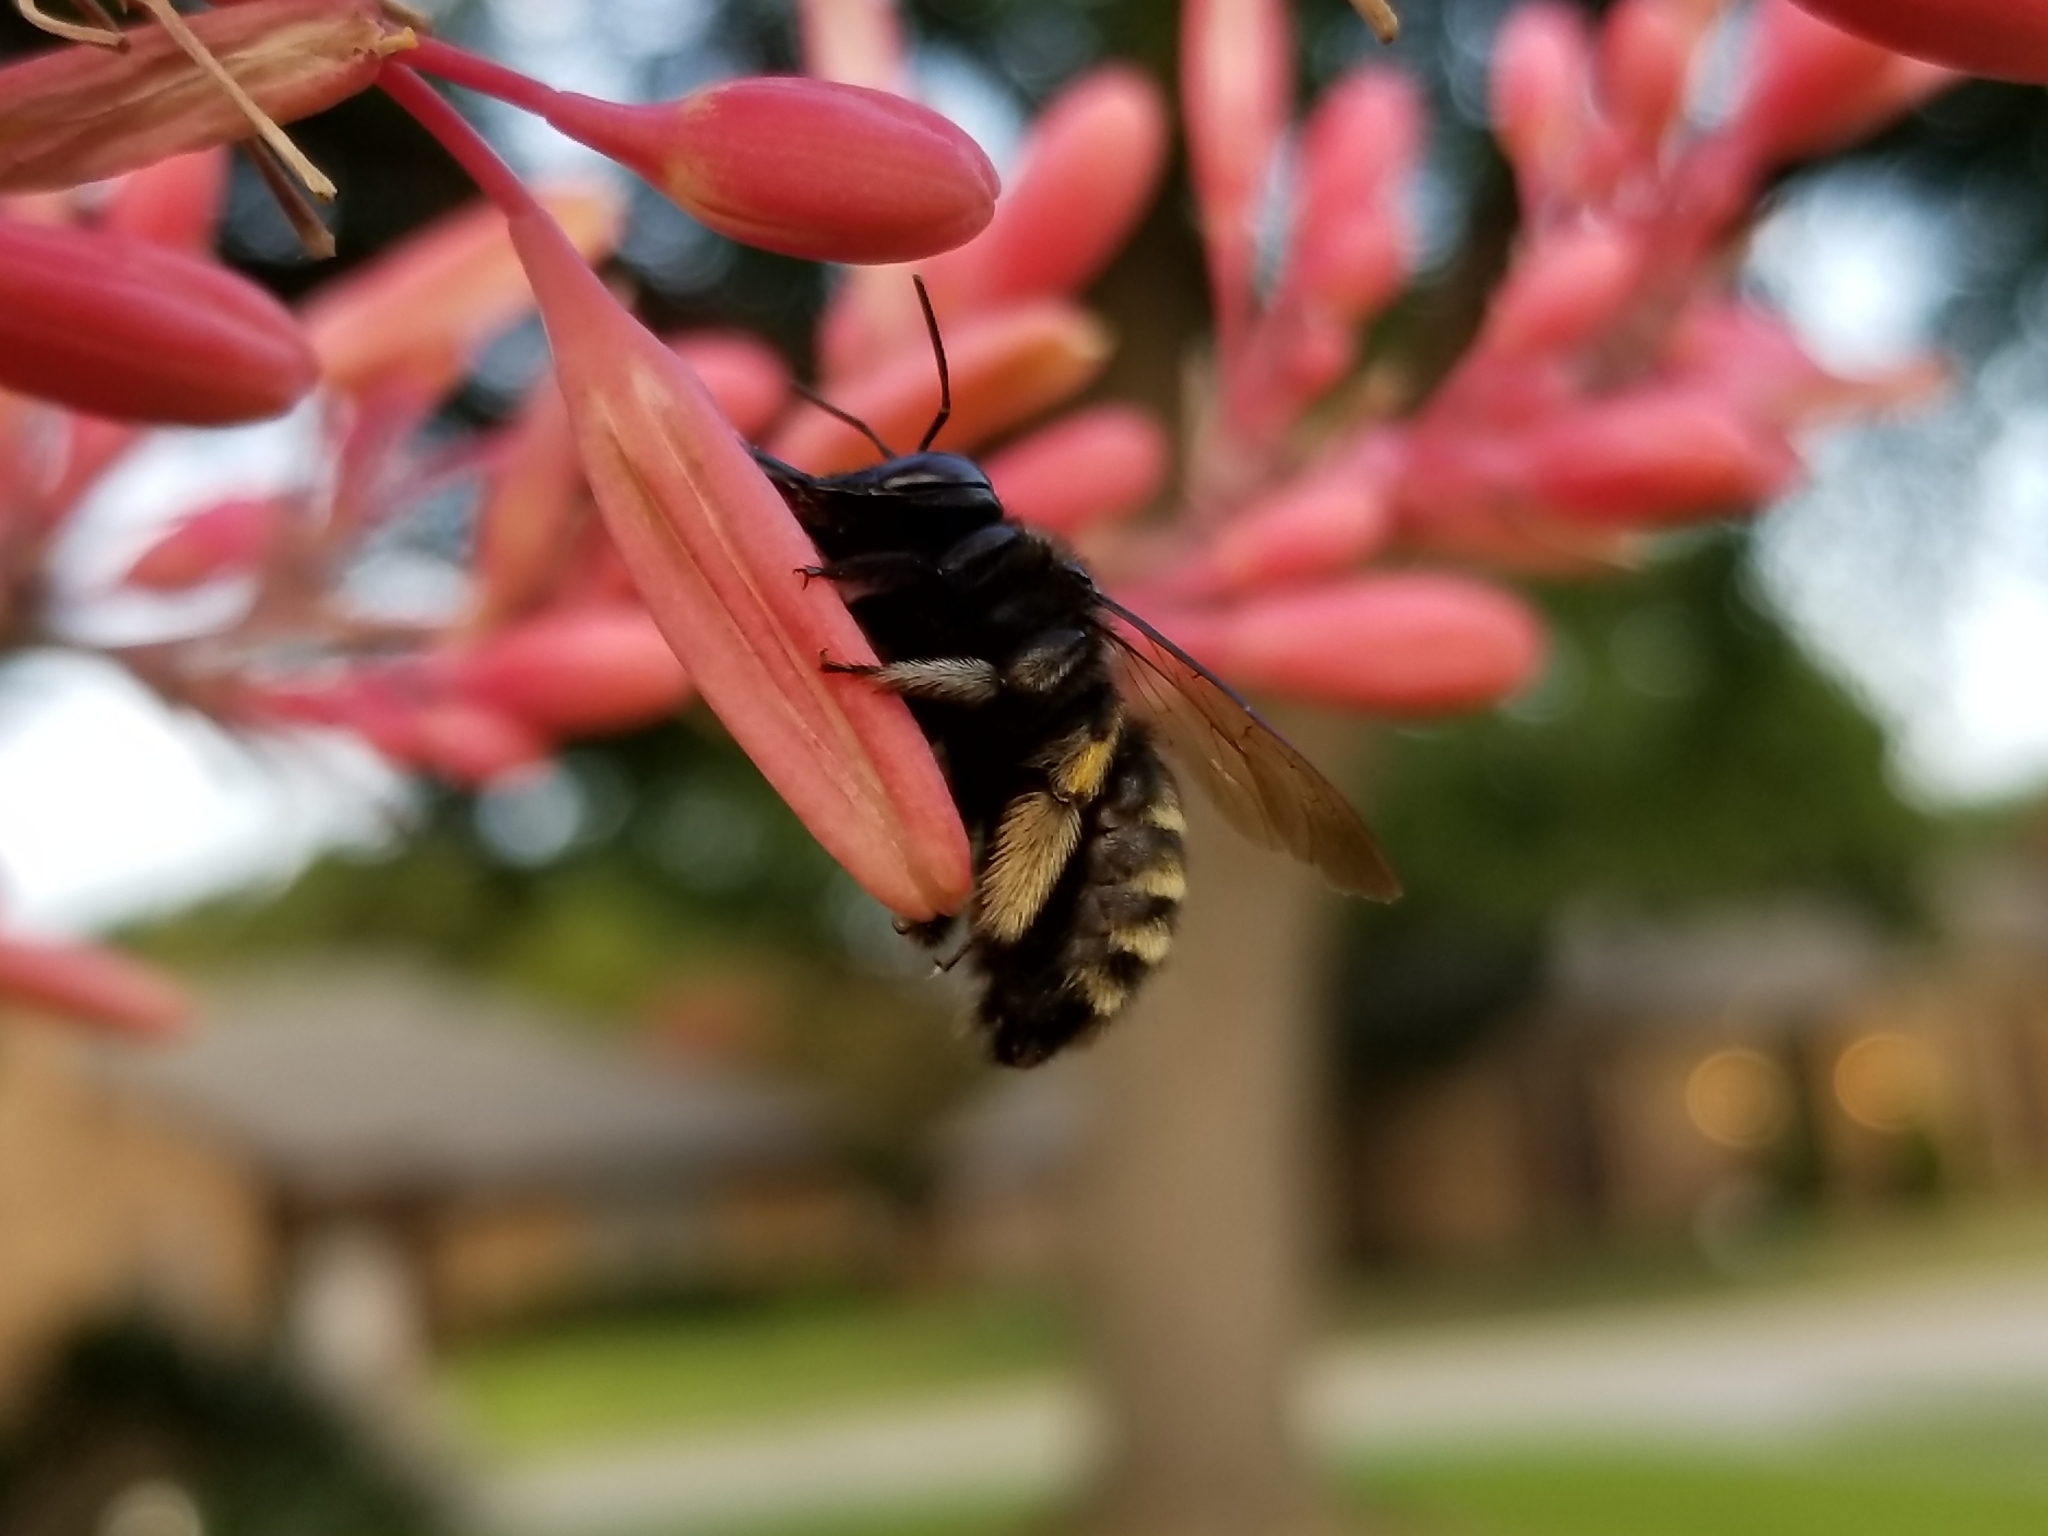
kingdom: Animalia
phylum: Arthropoda
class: Insecta
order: Hymenoptera
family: Apidae
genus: Xylocopa
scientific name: Xylocopa tabaniformis
